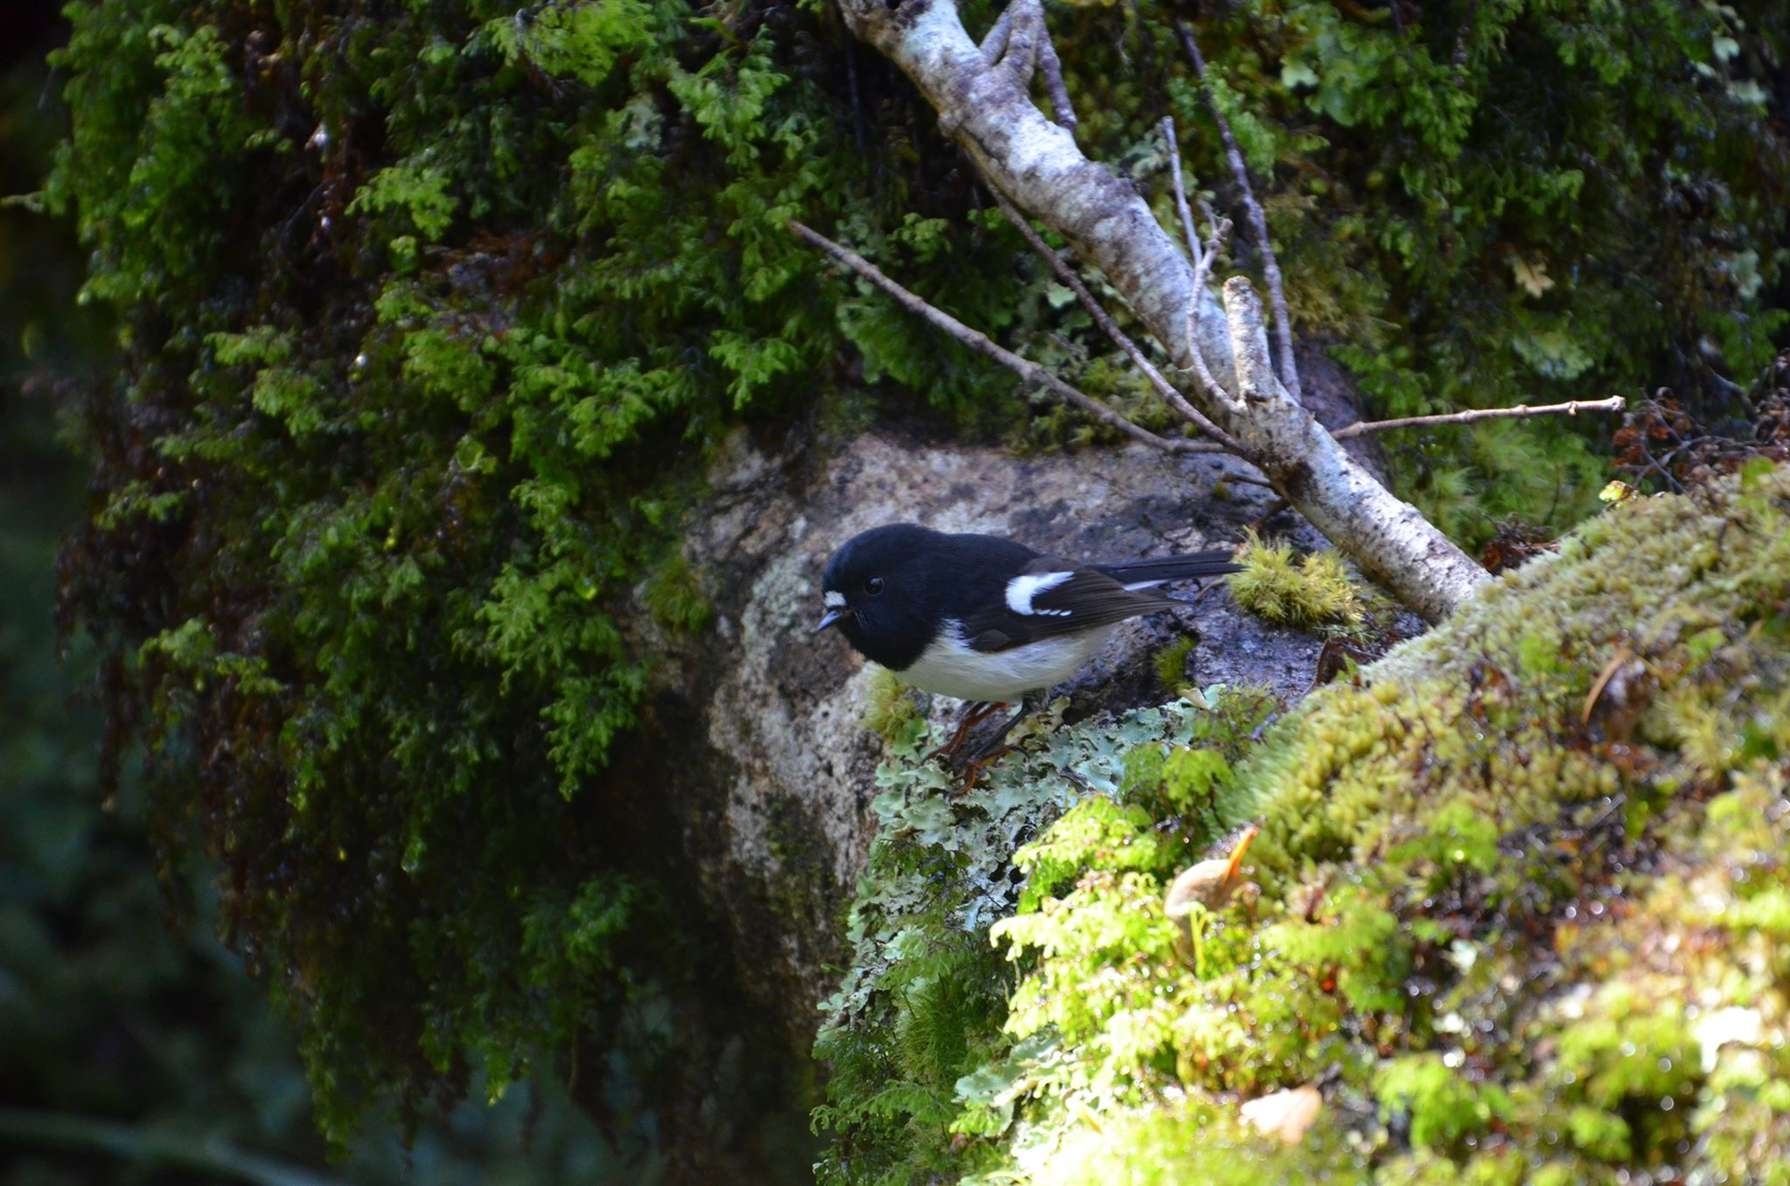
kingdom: Animalia
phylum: Chordata
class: Aves
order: Passeriformes
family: Petroicidae
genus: Petroica
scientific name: Petroica macrocephala
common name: Tomtit
